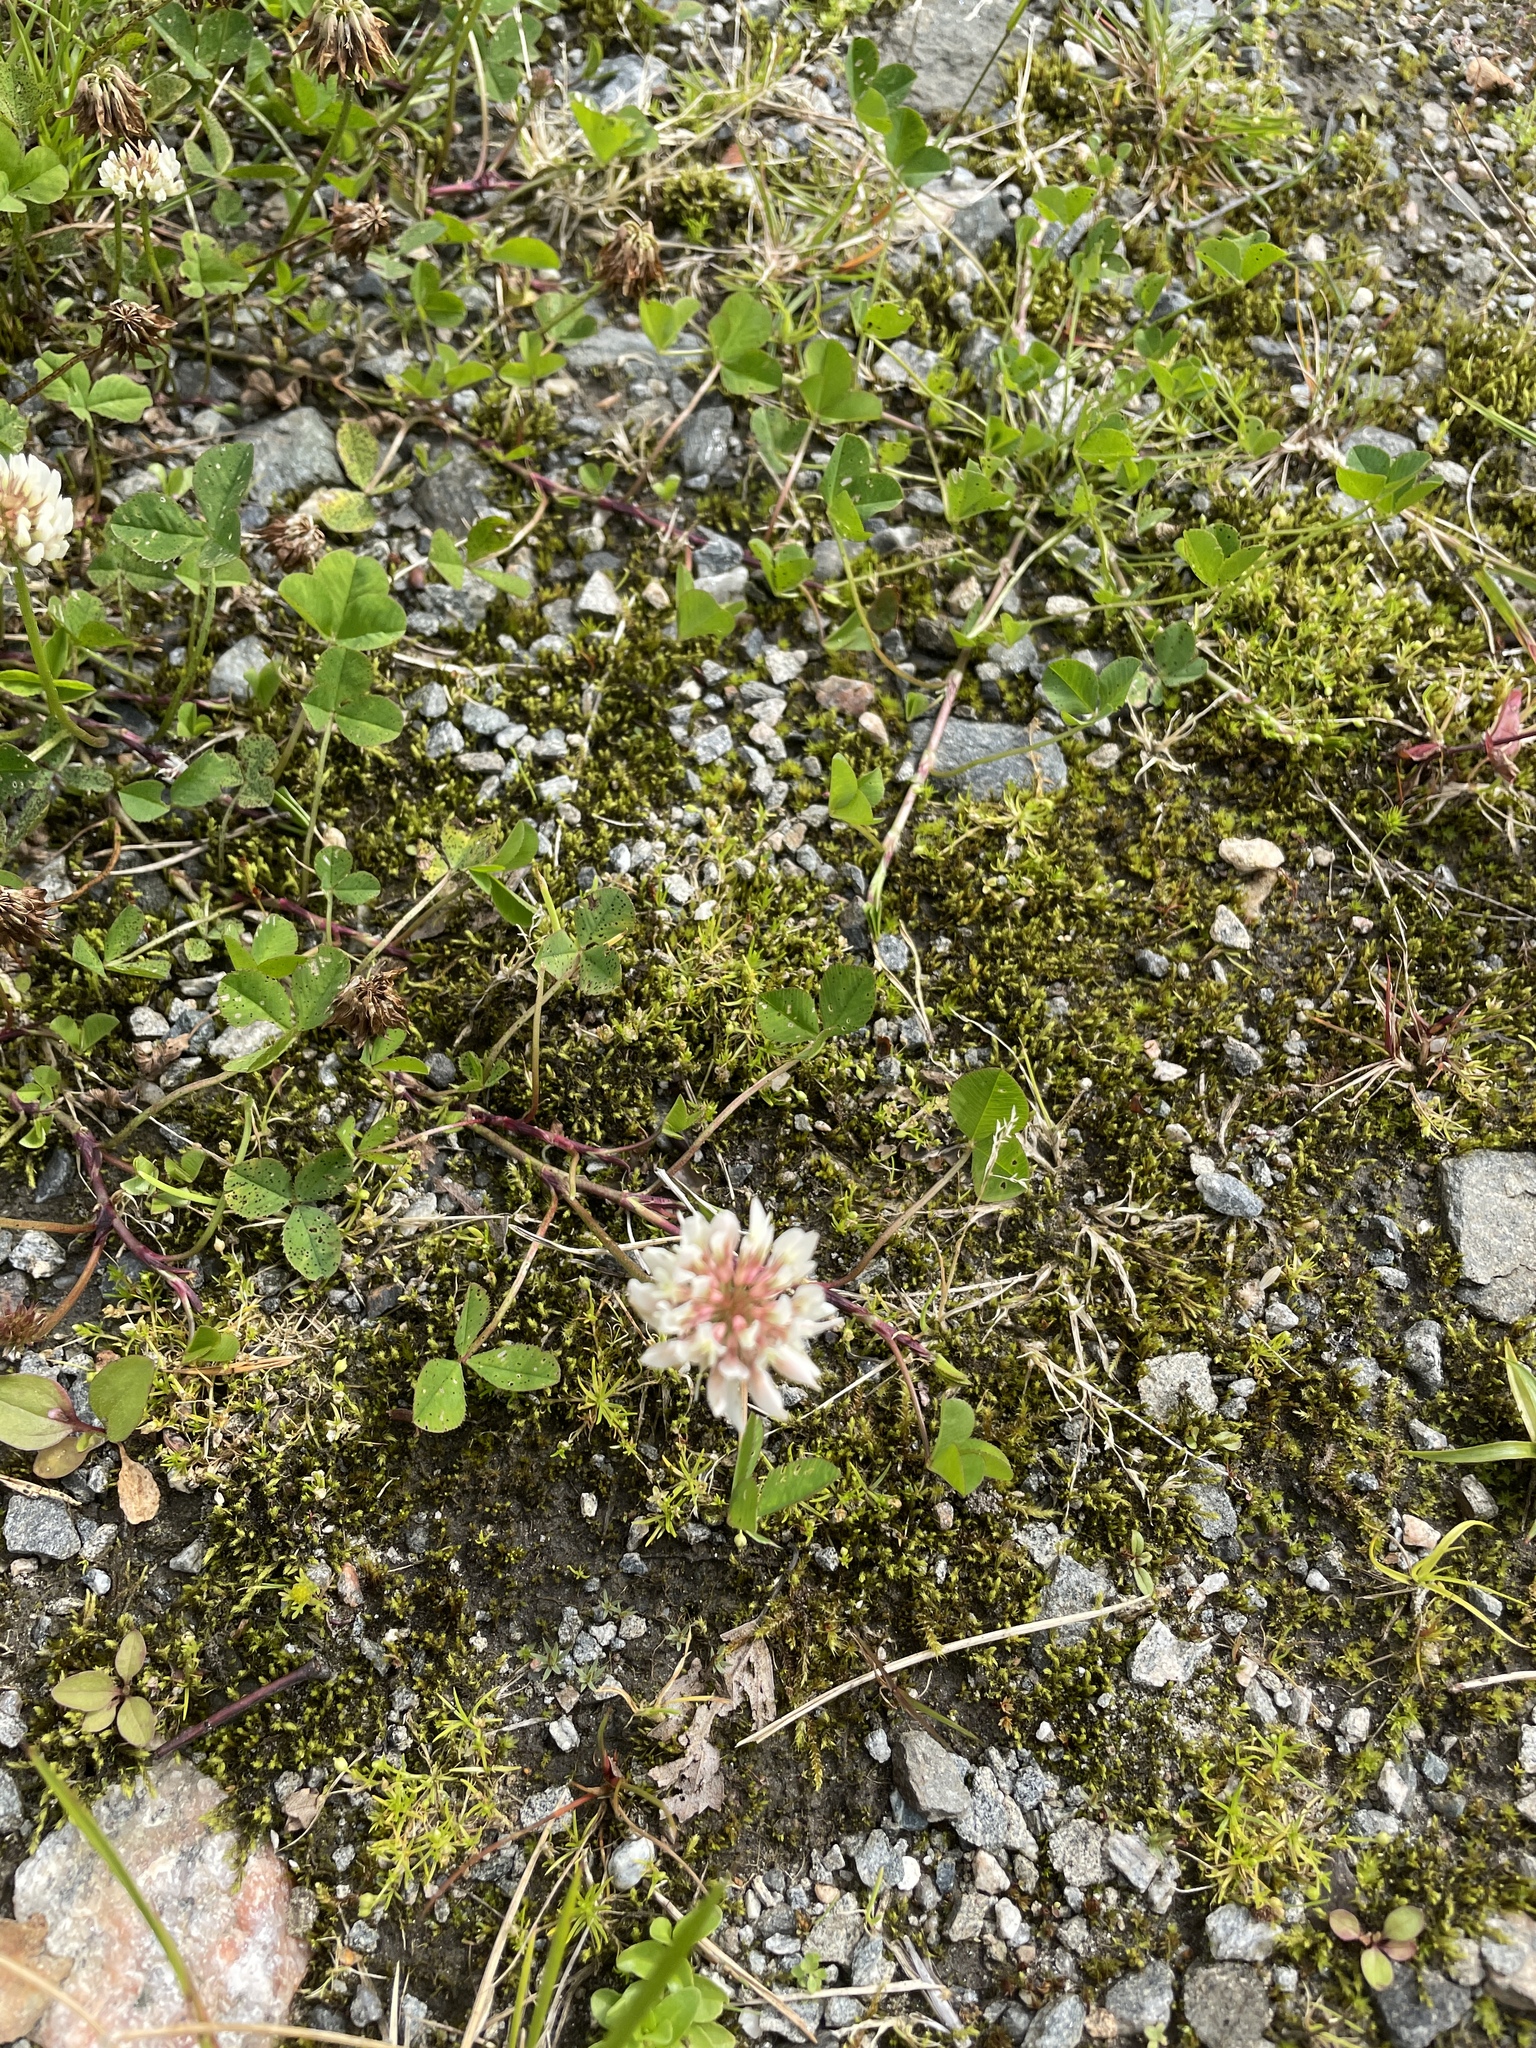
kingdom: Plantae
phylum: Tracheophyta
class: Magnoliopsida
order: Fabales
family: Fabaceae
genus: Trifolium
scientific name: Trifolium repens
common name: White clover
